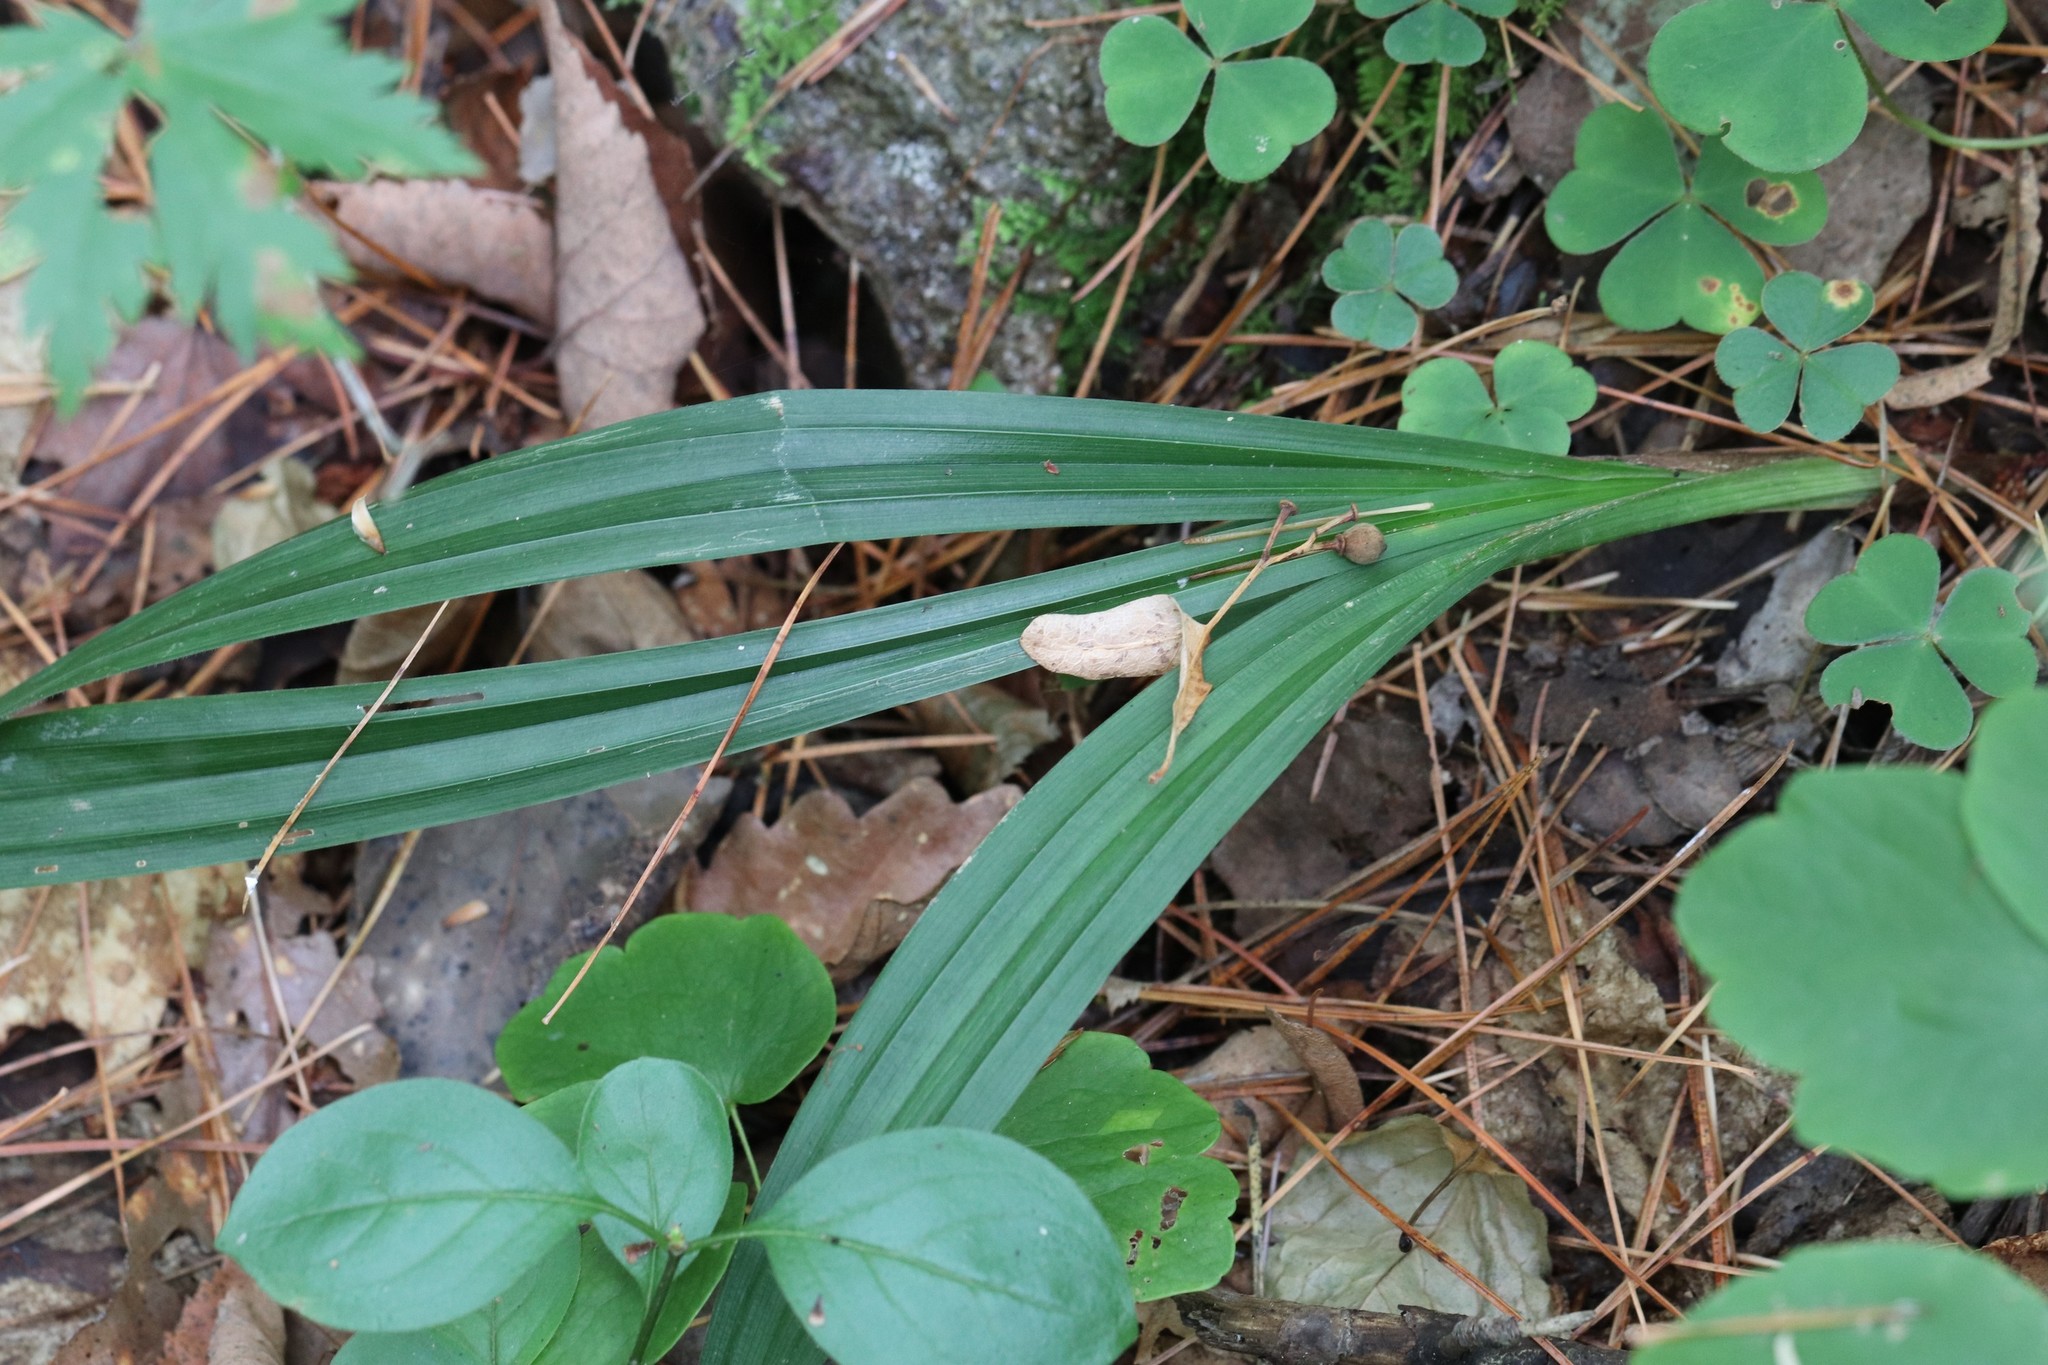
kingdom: Plantae
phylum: Tracheophyta
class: Liliopsida
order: Poales
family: Cyperaceae
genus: Carex
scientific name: Carex siderosticta
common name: Broadleaf sedge
